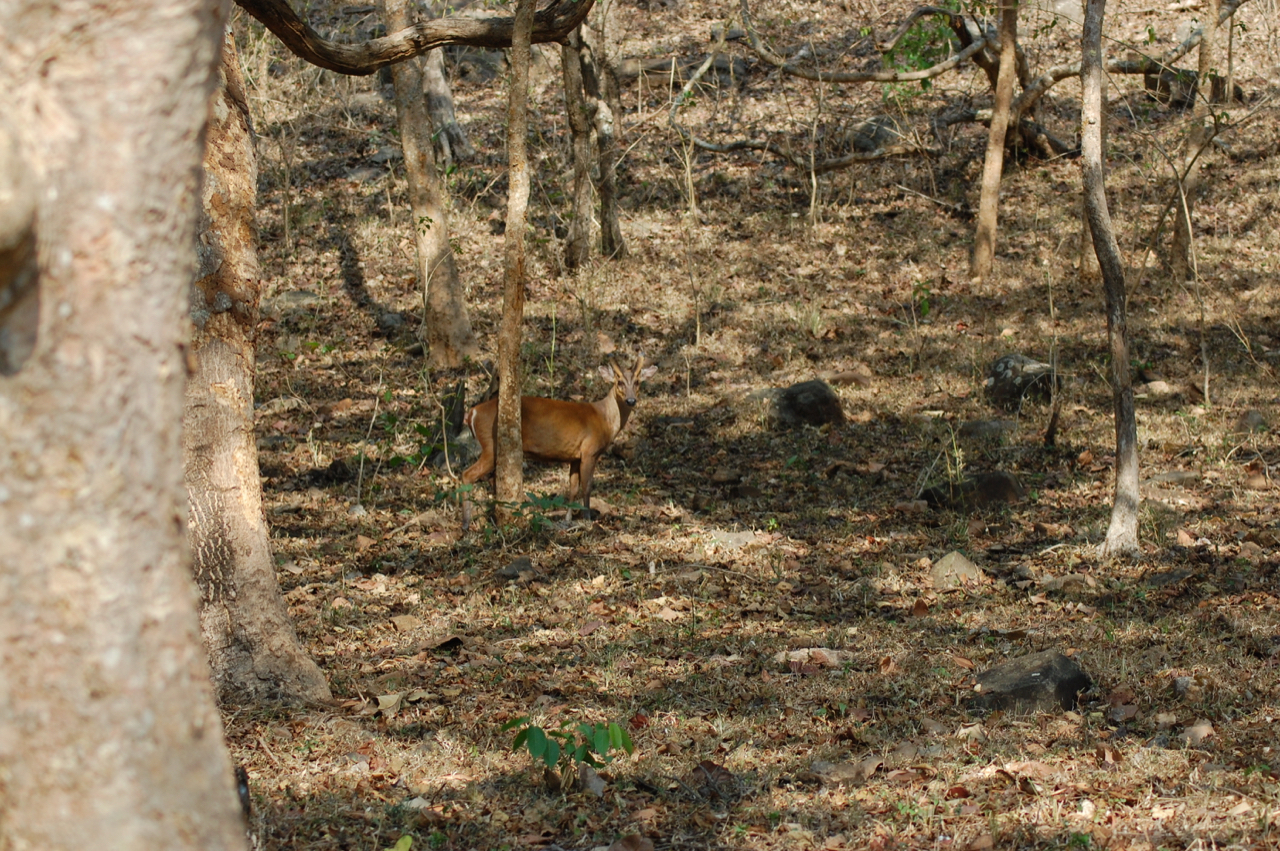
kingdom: Animalia
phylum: Chordata
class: Mammalia
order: Artiodactyla
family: Cervidae
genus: Muntiacus
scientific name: Muntiacus muntjak
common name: Indian muntjac
